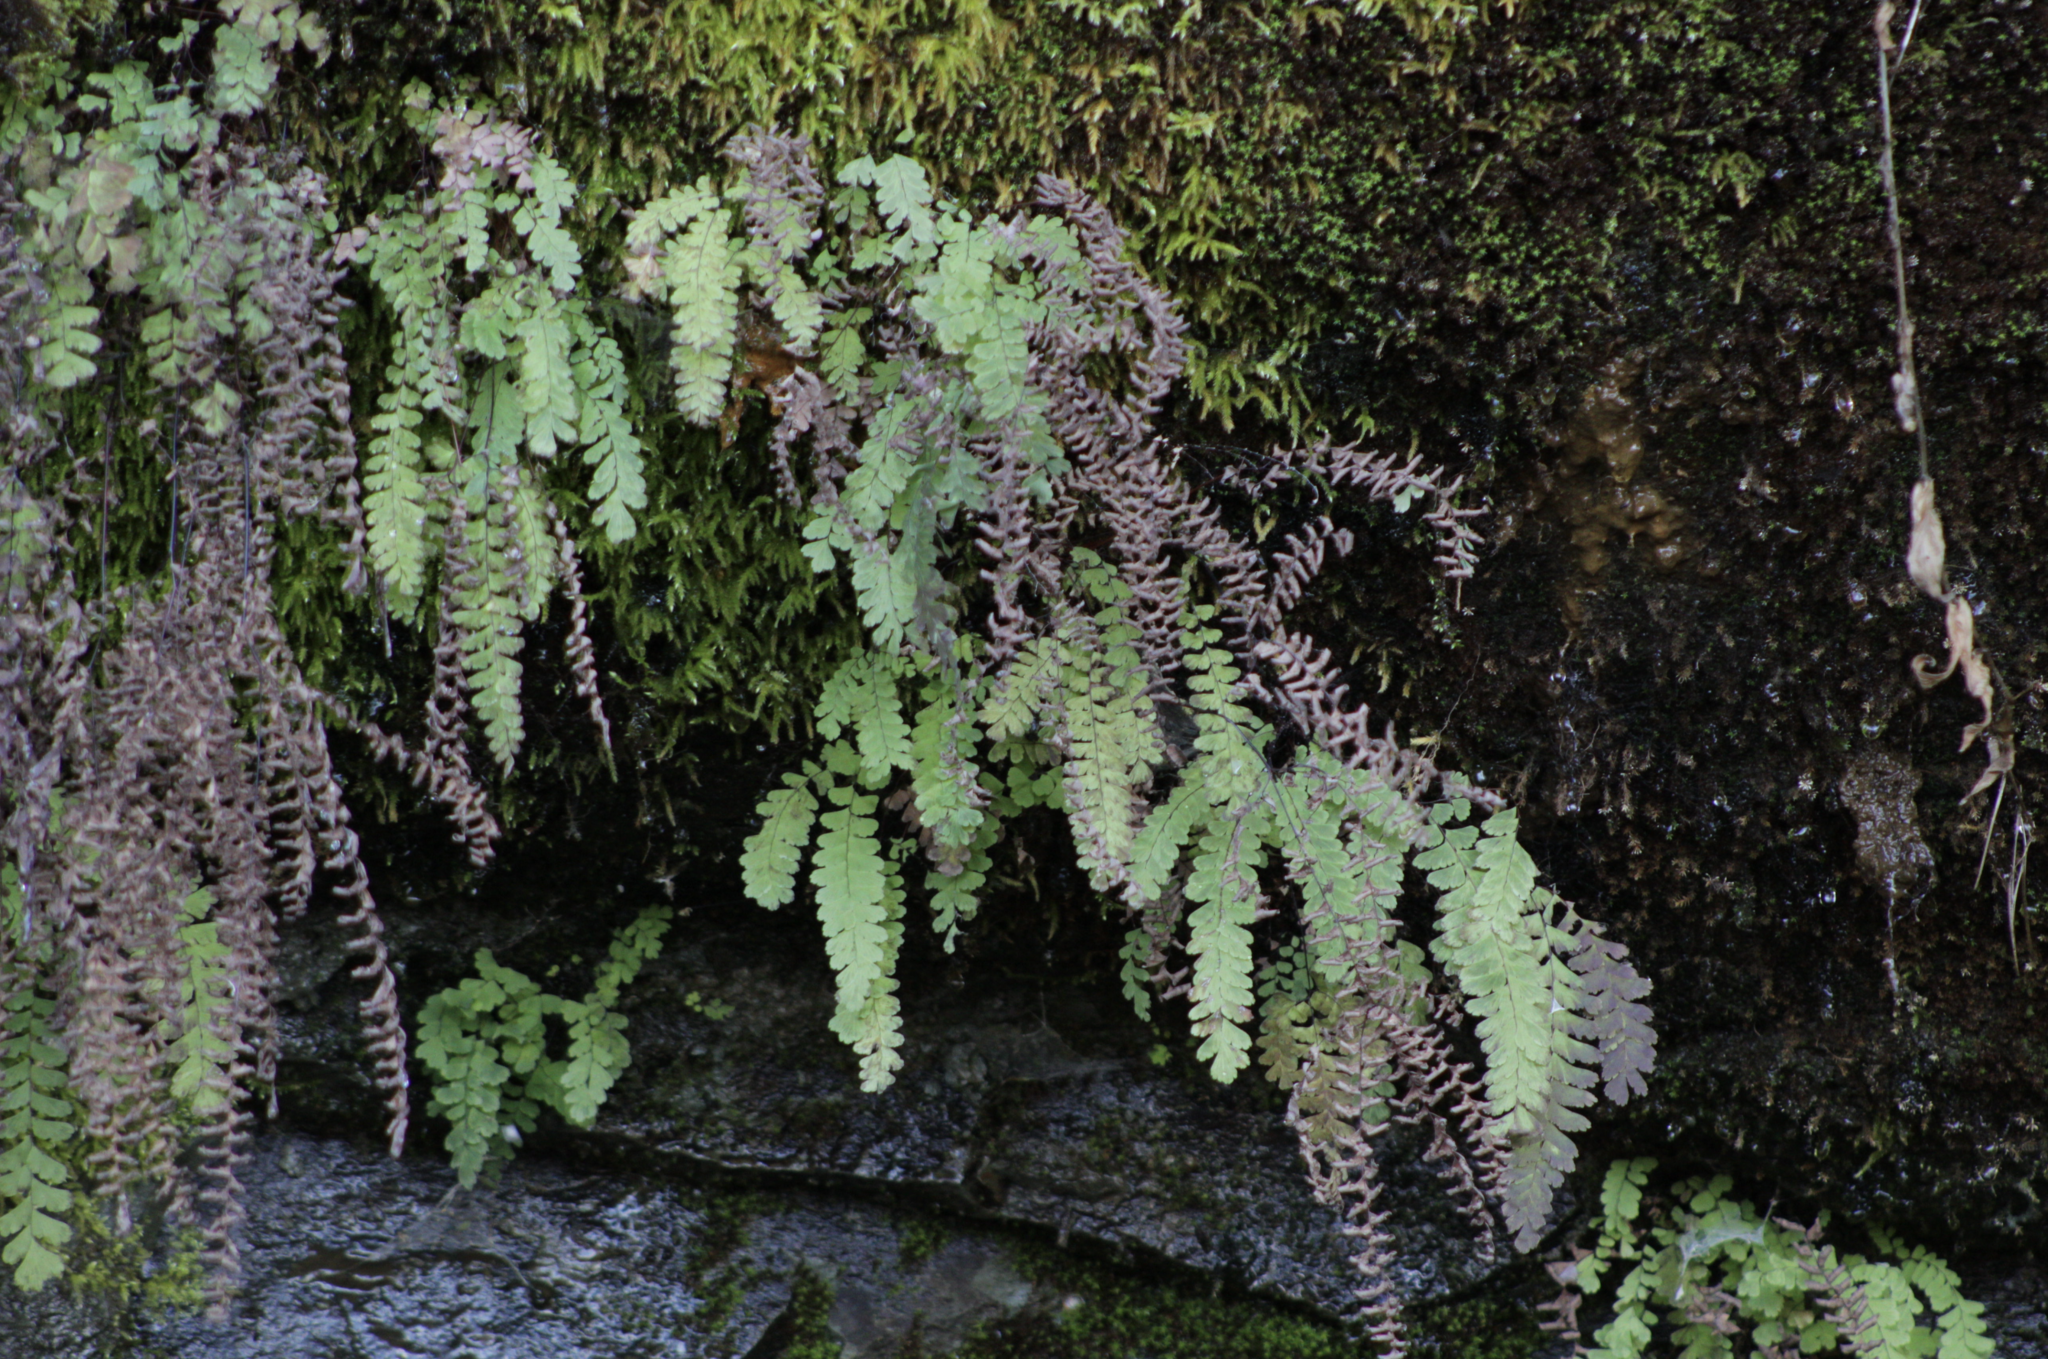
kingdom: Plantae
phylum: Tracheophyta
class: Polypodiopsida
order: Polypodiales
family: Pteridaceae
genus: Adiantum
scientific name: Adiantum aleuticum
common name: Aleutian maidenhair fern
